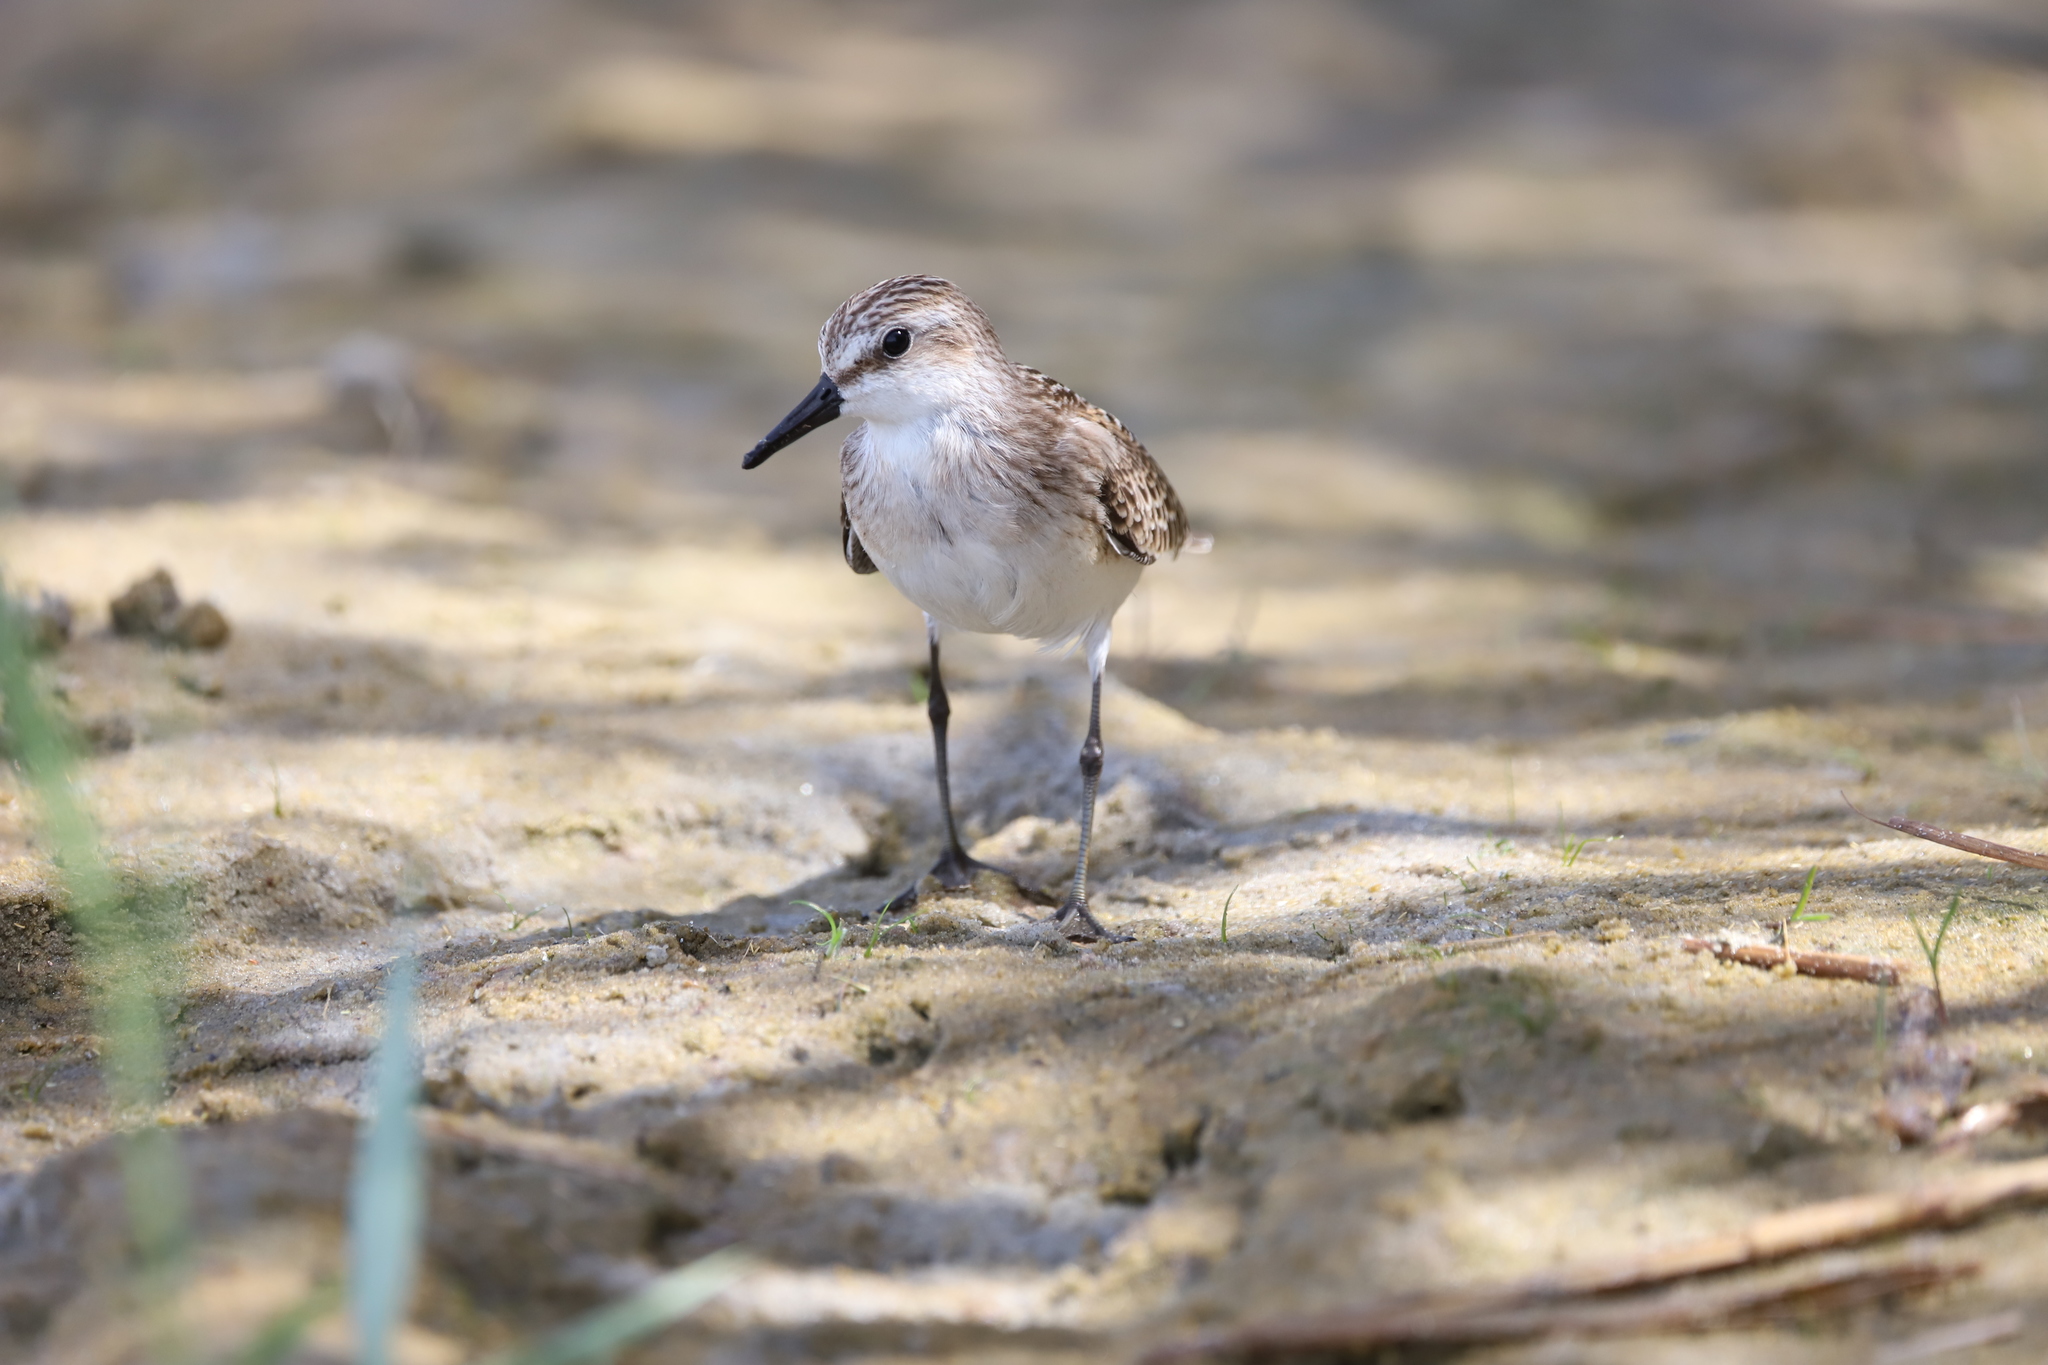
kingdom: Animalia
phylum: Chordata
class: Aves
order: Charadriiformes
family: Scolopacidae
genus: Calidris
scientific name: Calidris pusilla
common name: Semipalmated sandpiper
